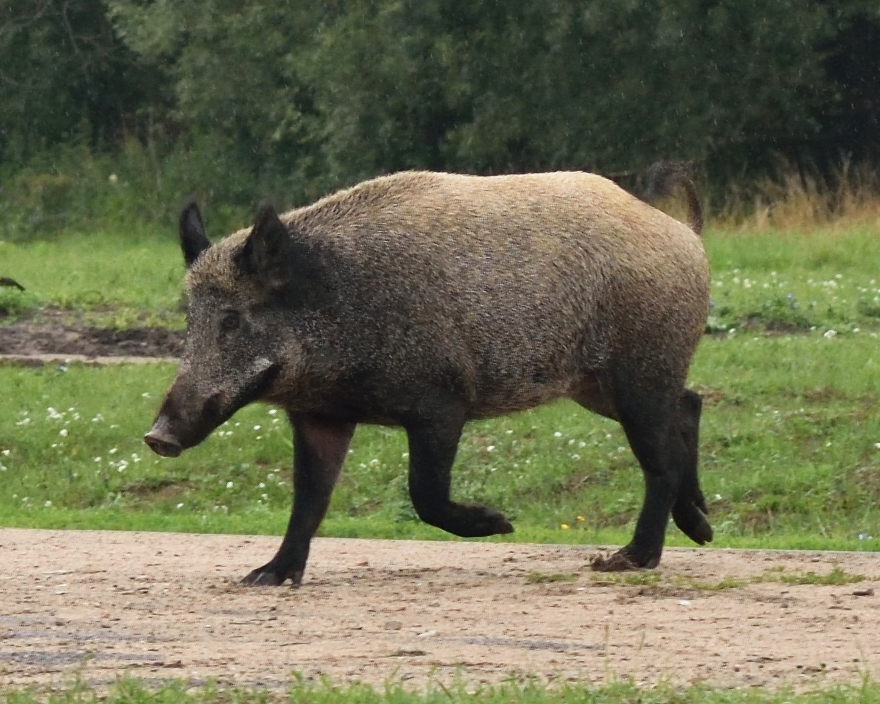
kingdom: Animalia
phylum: Chordata
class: Mammalia
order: Artiodactyla
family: Suidae
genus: Sus
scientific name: Sus scrofa
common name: Wild boar
